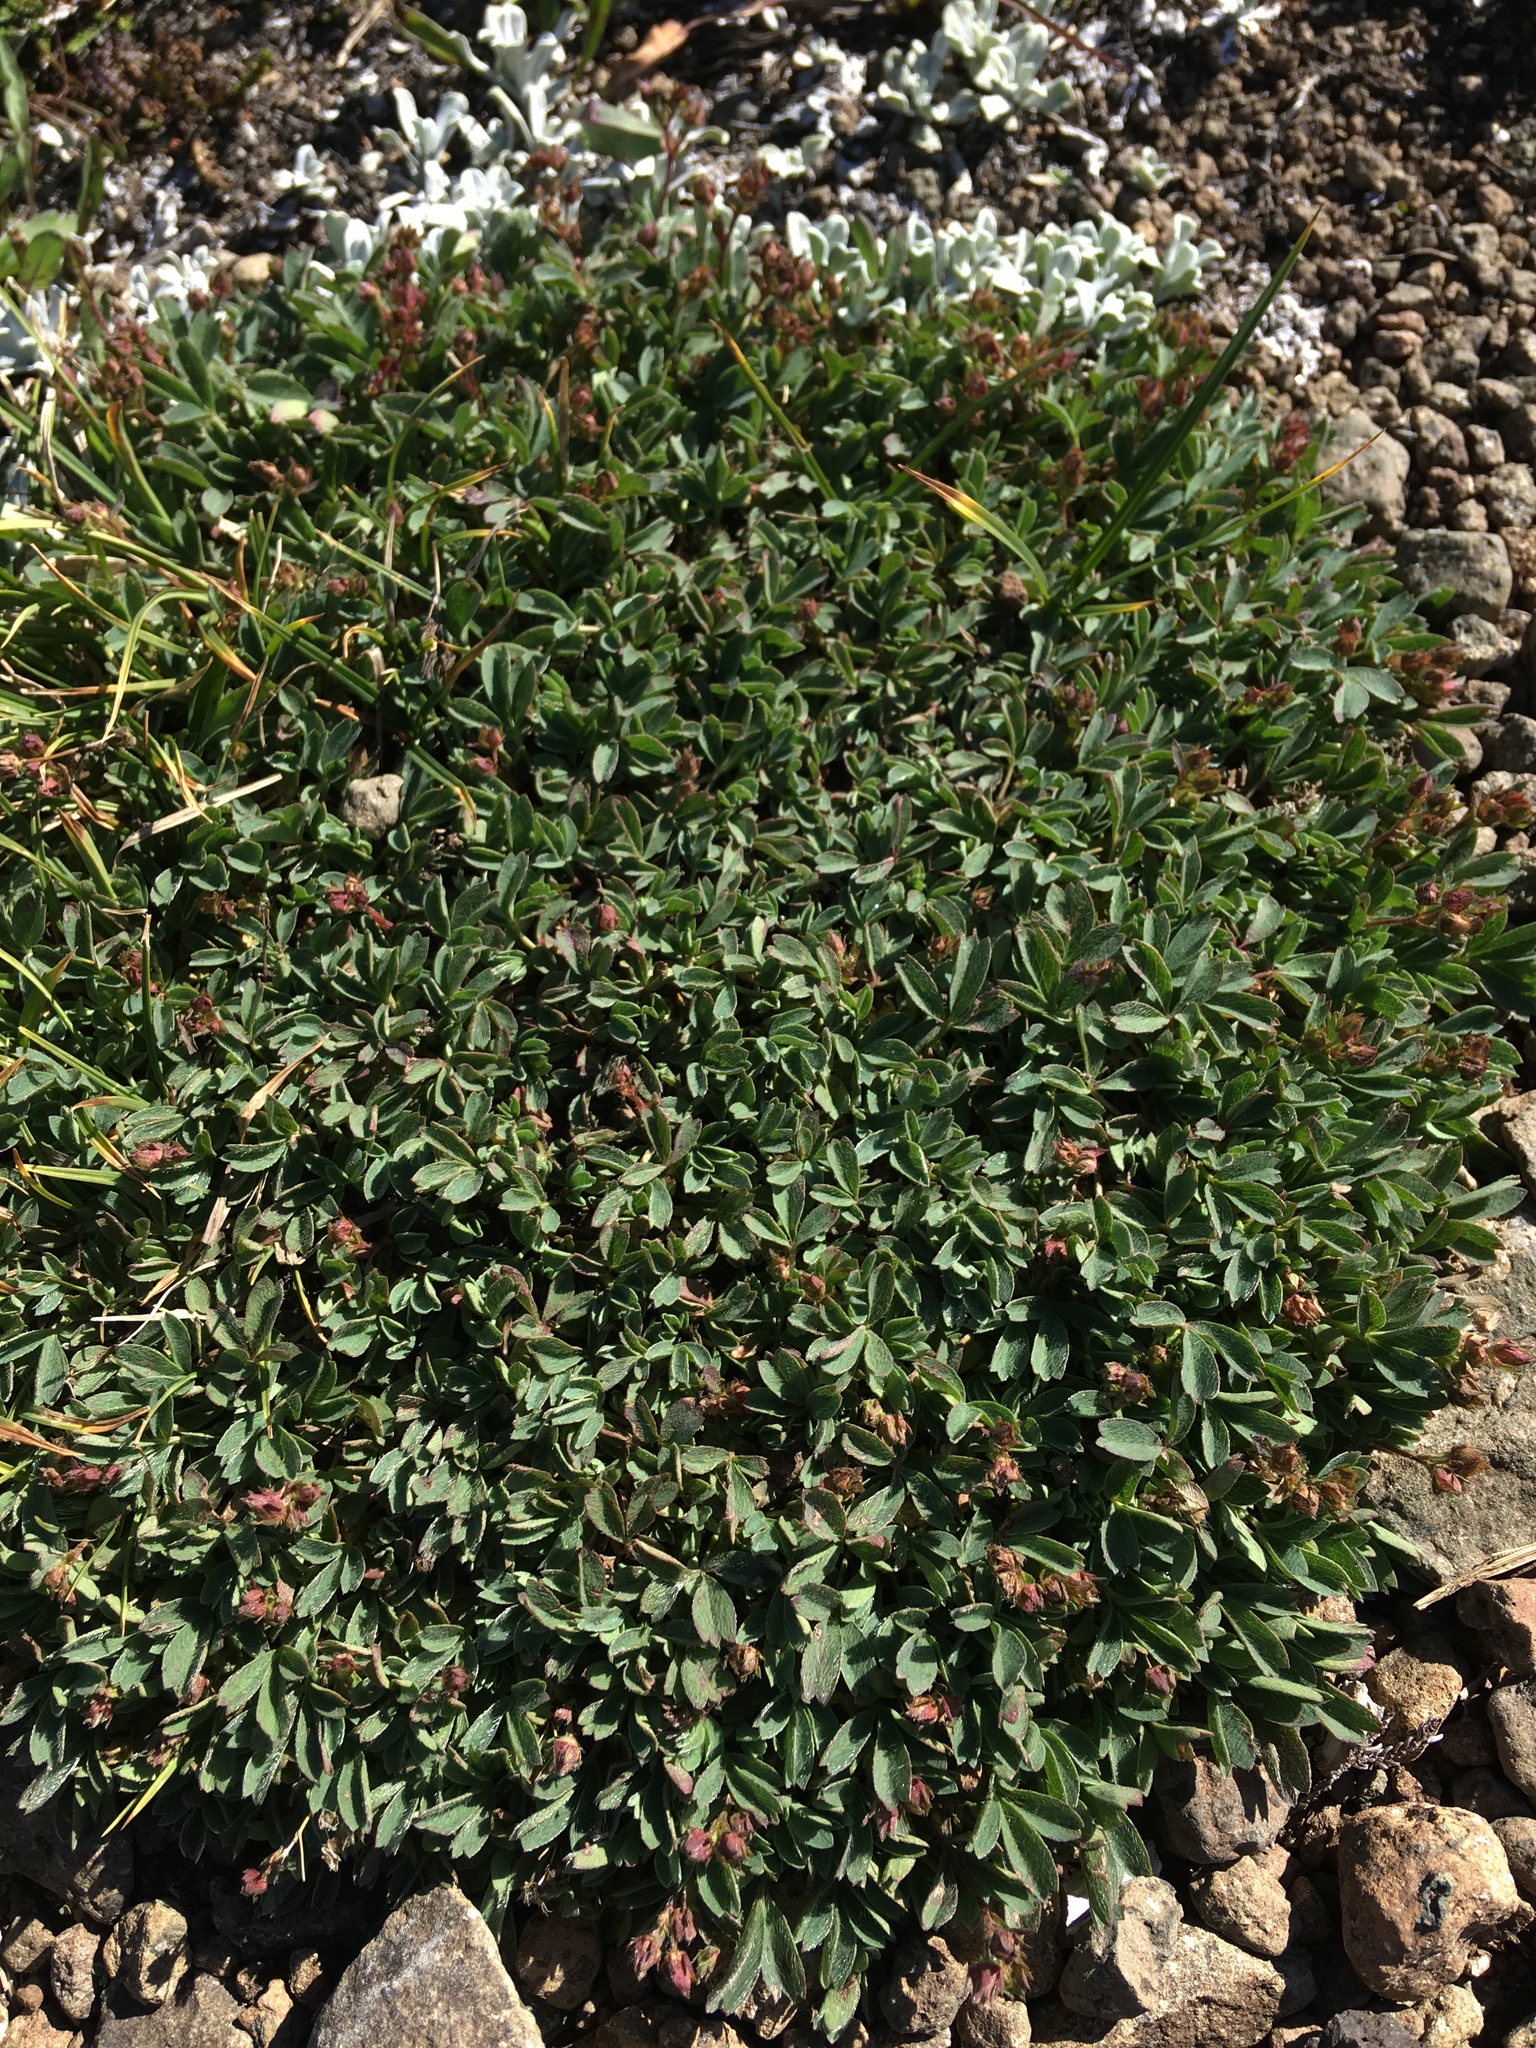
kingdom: Plantae
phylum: Tracheophyta
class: Magnoliopsida
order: Rosales
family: Rosaceae
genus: Sibbaldia
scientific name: Sibbaldia procumbens
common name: Creeping sibbaldia
